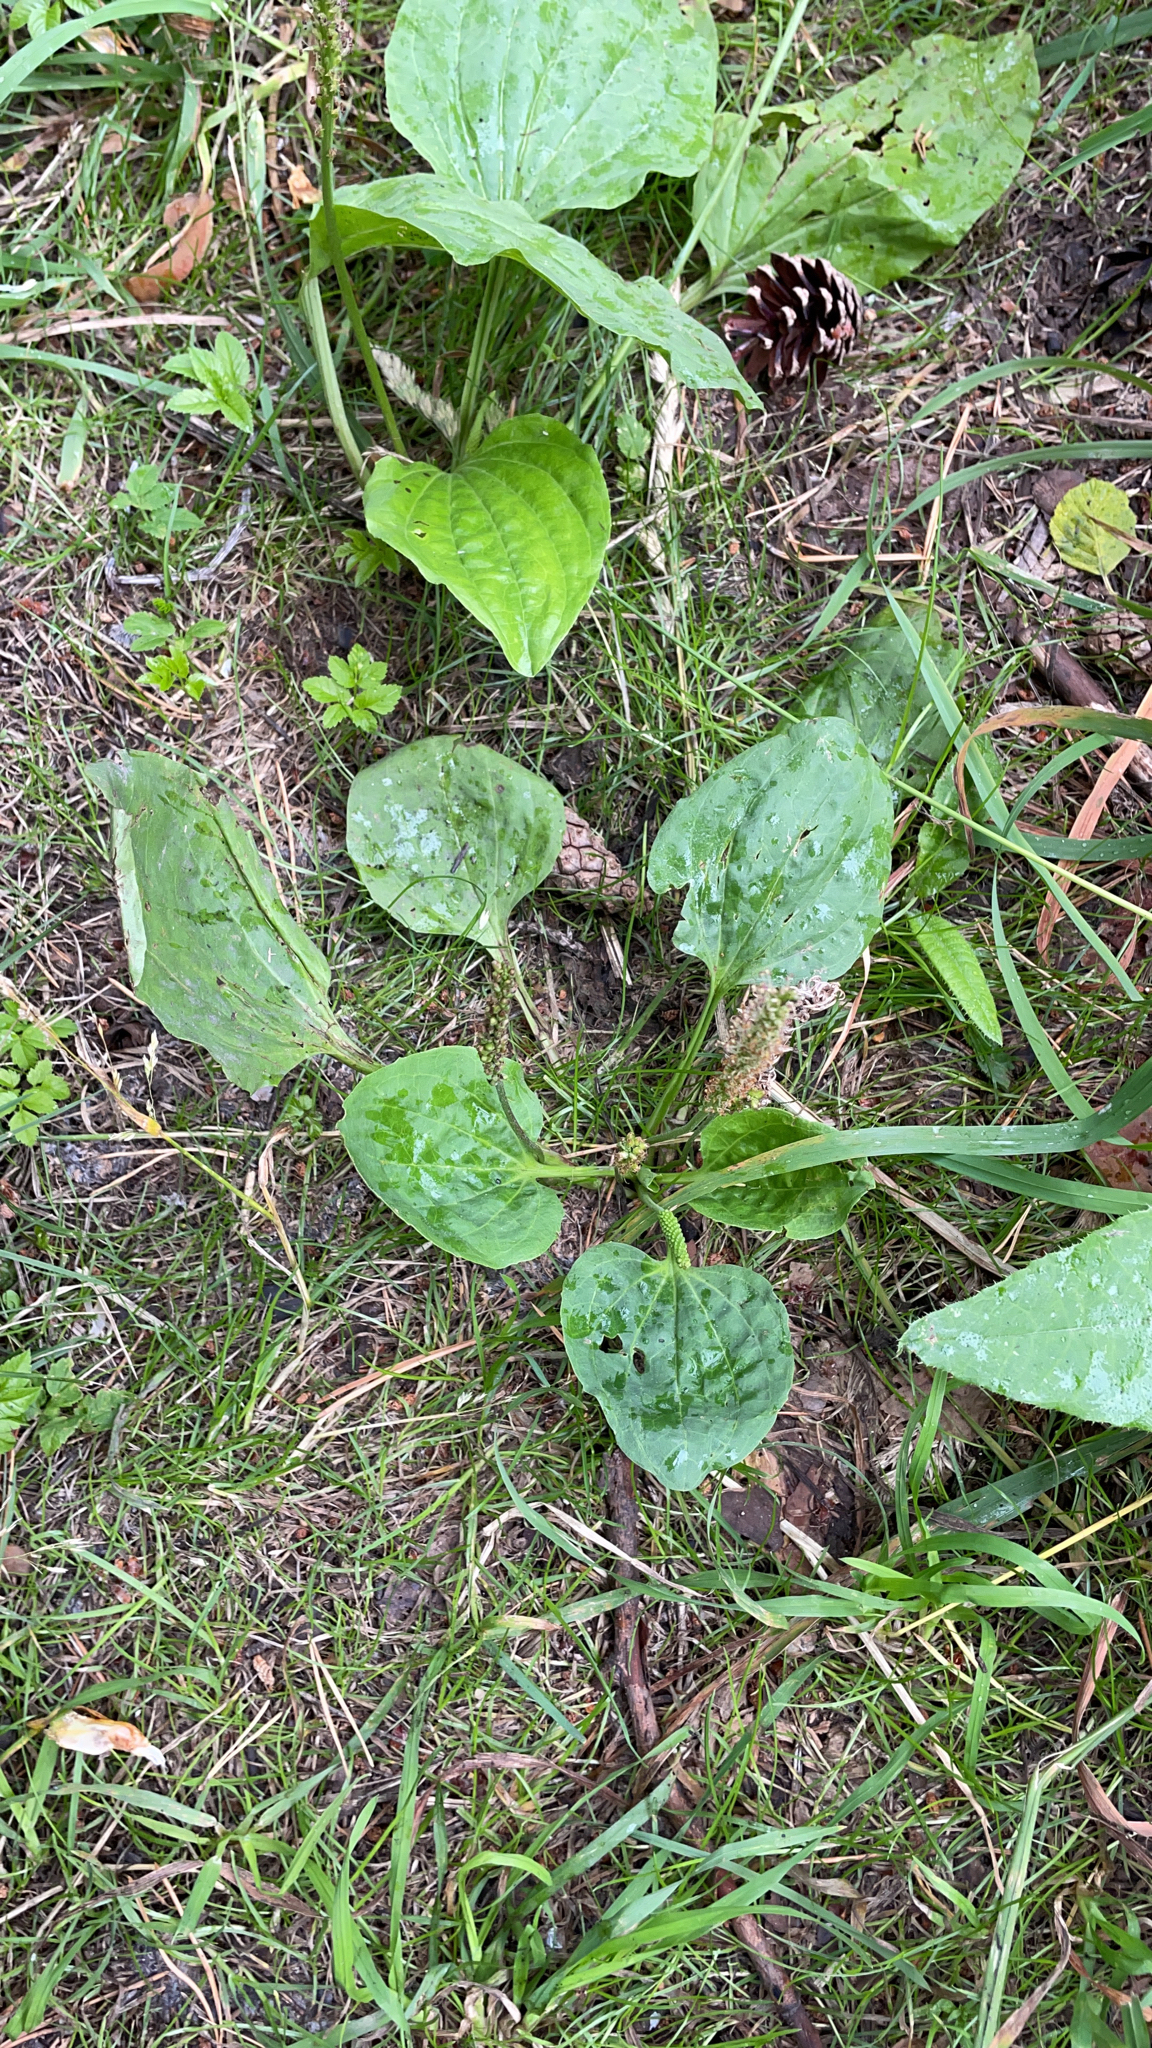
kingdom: Plantae
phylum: Tracheophyta
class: Magnoliopsida
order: Lamiales
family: Plantaginaceae
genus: Plantago
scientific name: Plantago major
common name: Common plantain
